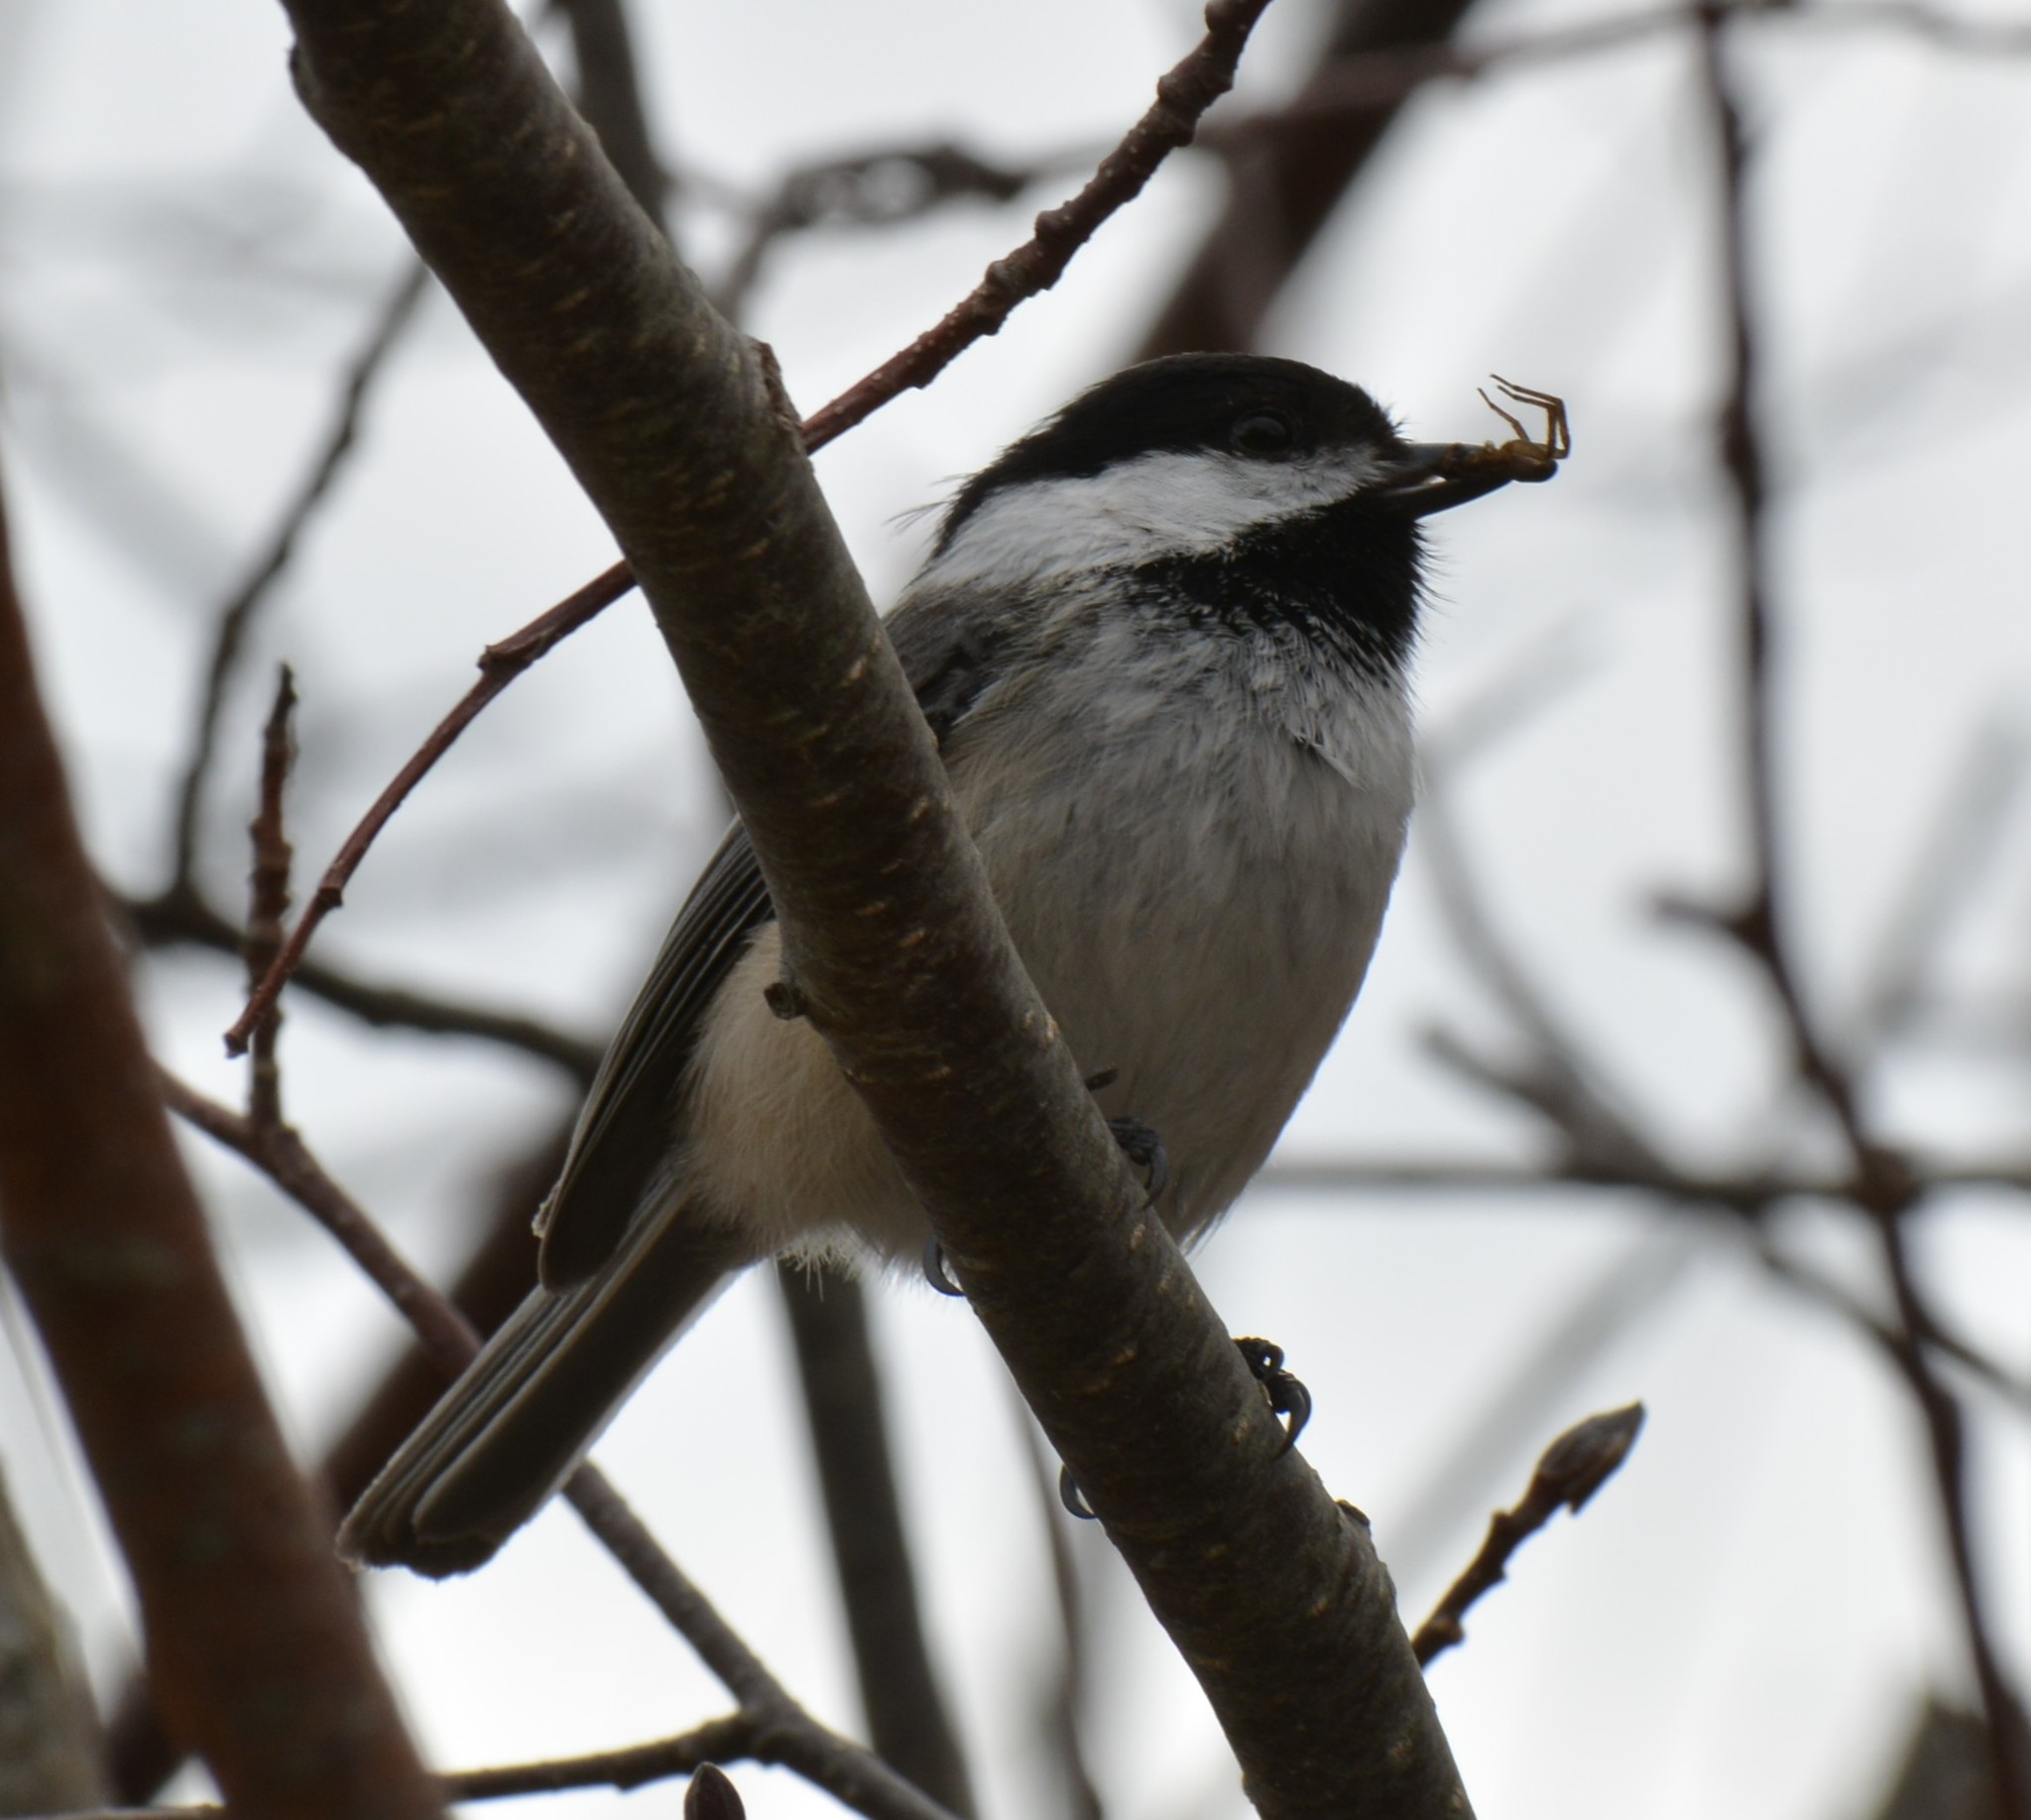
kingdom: Animalia
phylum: Chordata
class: Aves
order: Passeriformes
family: Paridae
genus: Poecile
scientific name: Poecile atricapillus
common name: Black-capped chickadee
